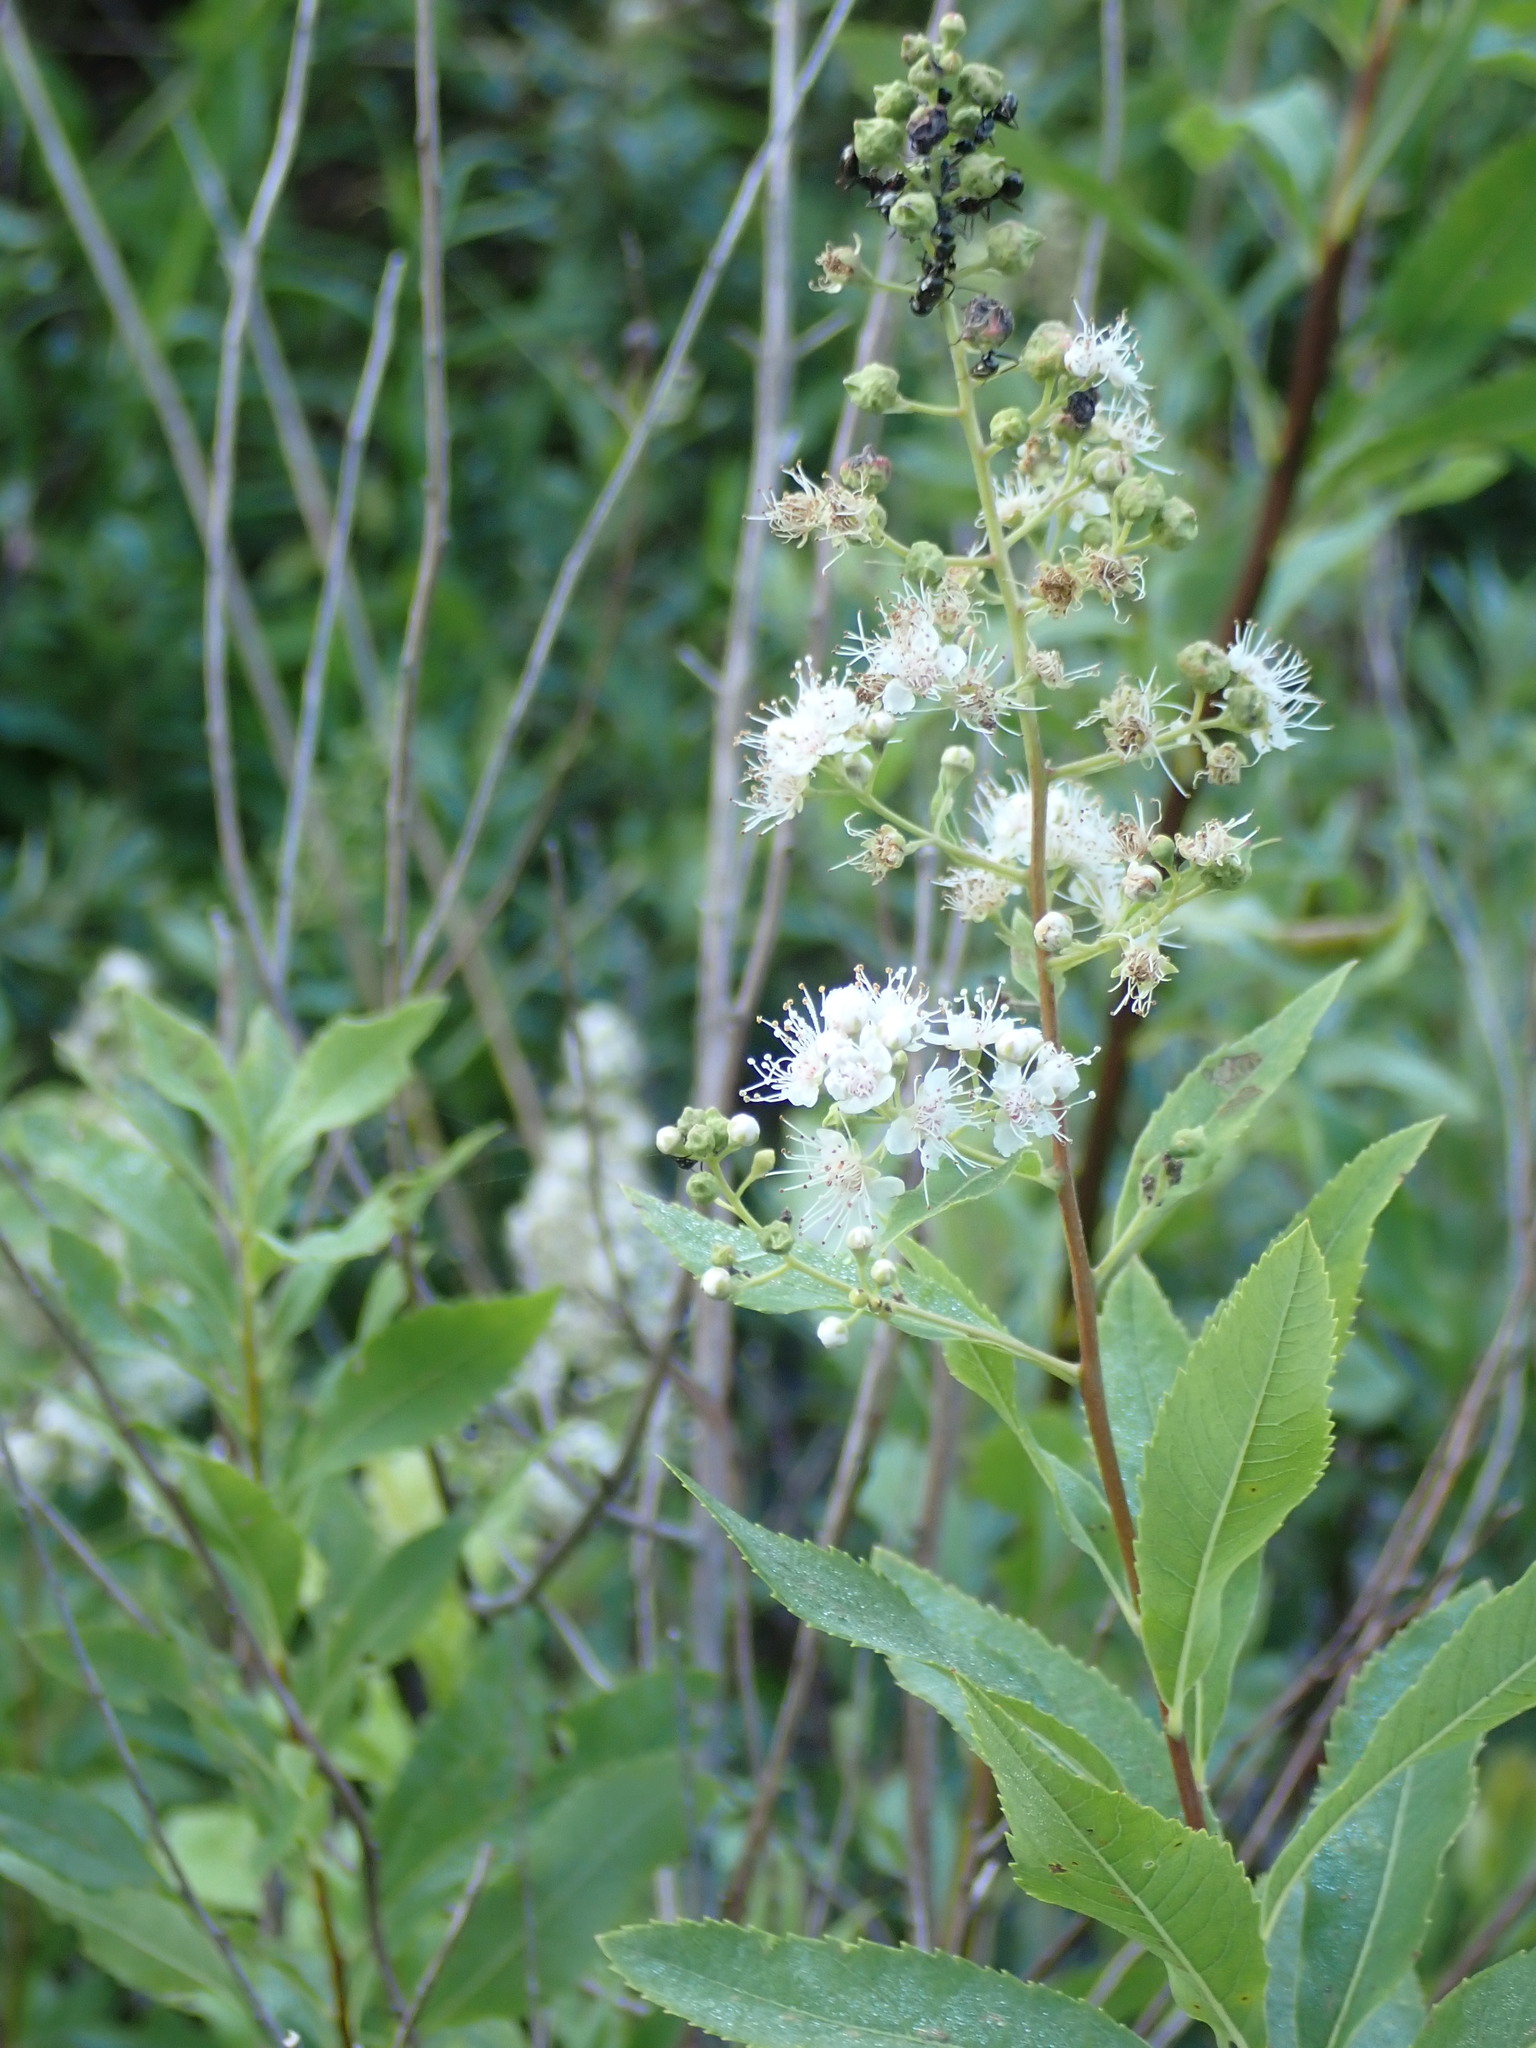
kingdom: Plantae
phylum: Tracheophyta
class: Magnoliopsida
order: Rosales
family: Rosaceae
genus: Spiraea
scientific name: Spiraea alba
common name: Pale bridewort
